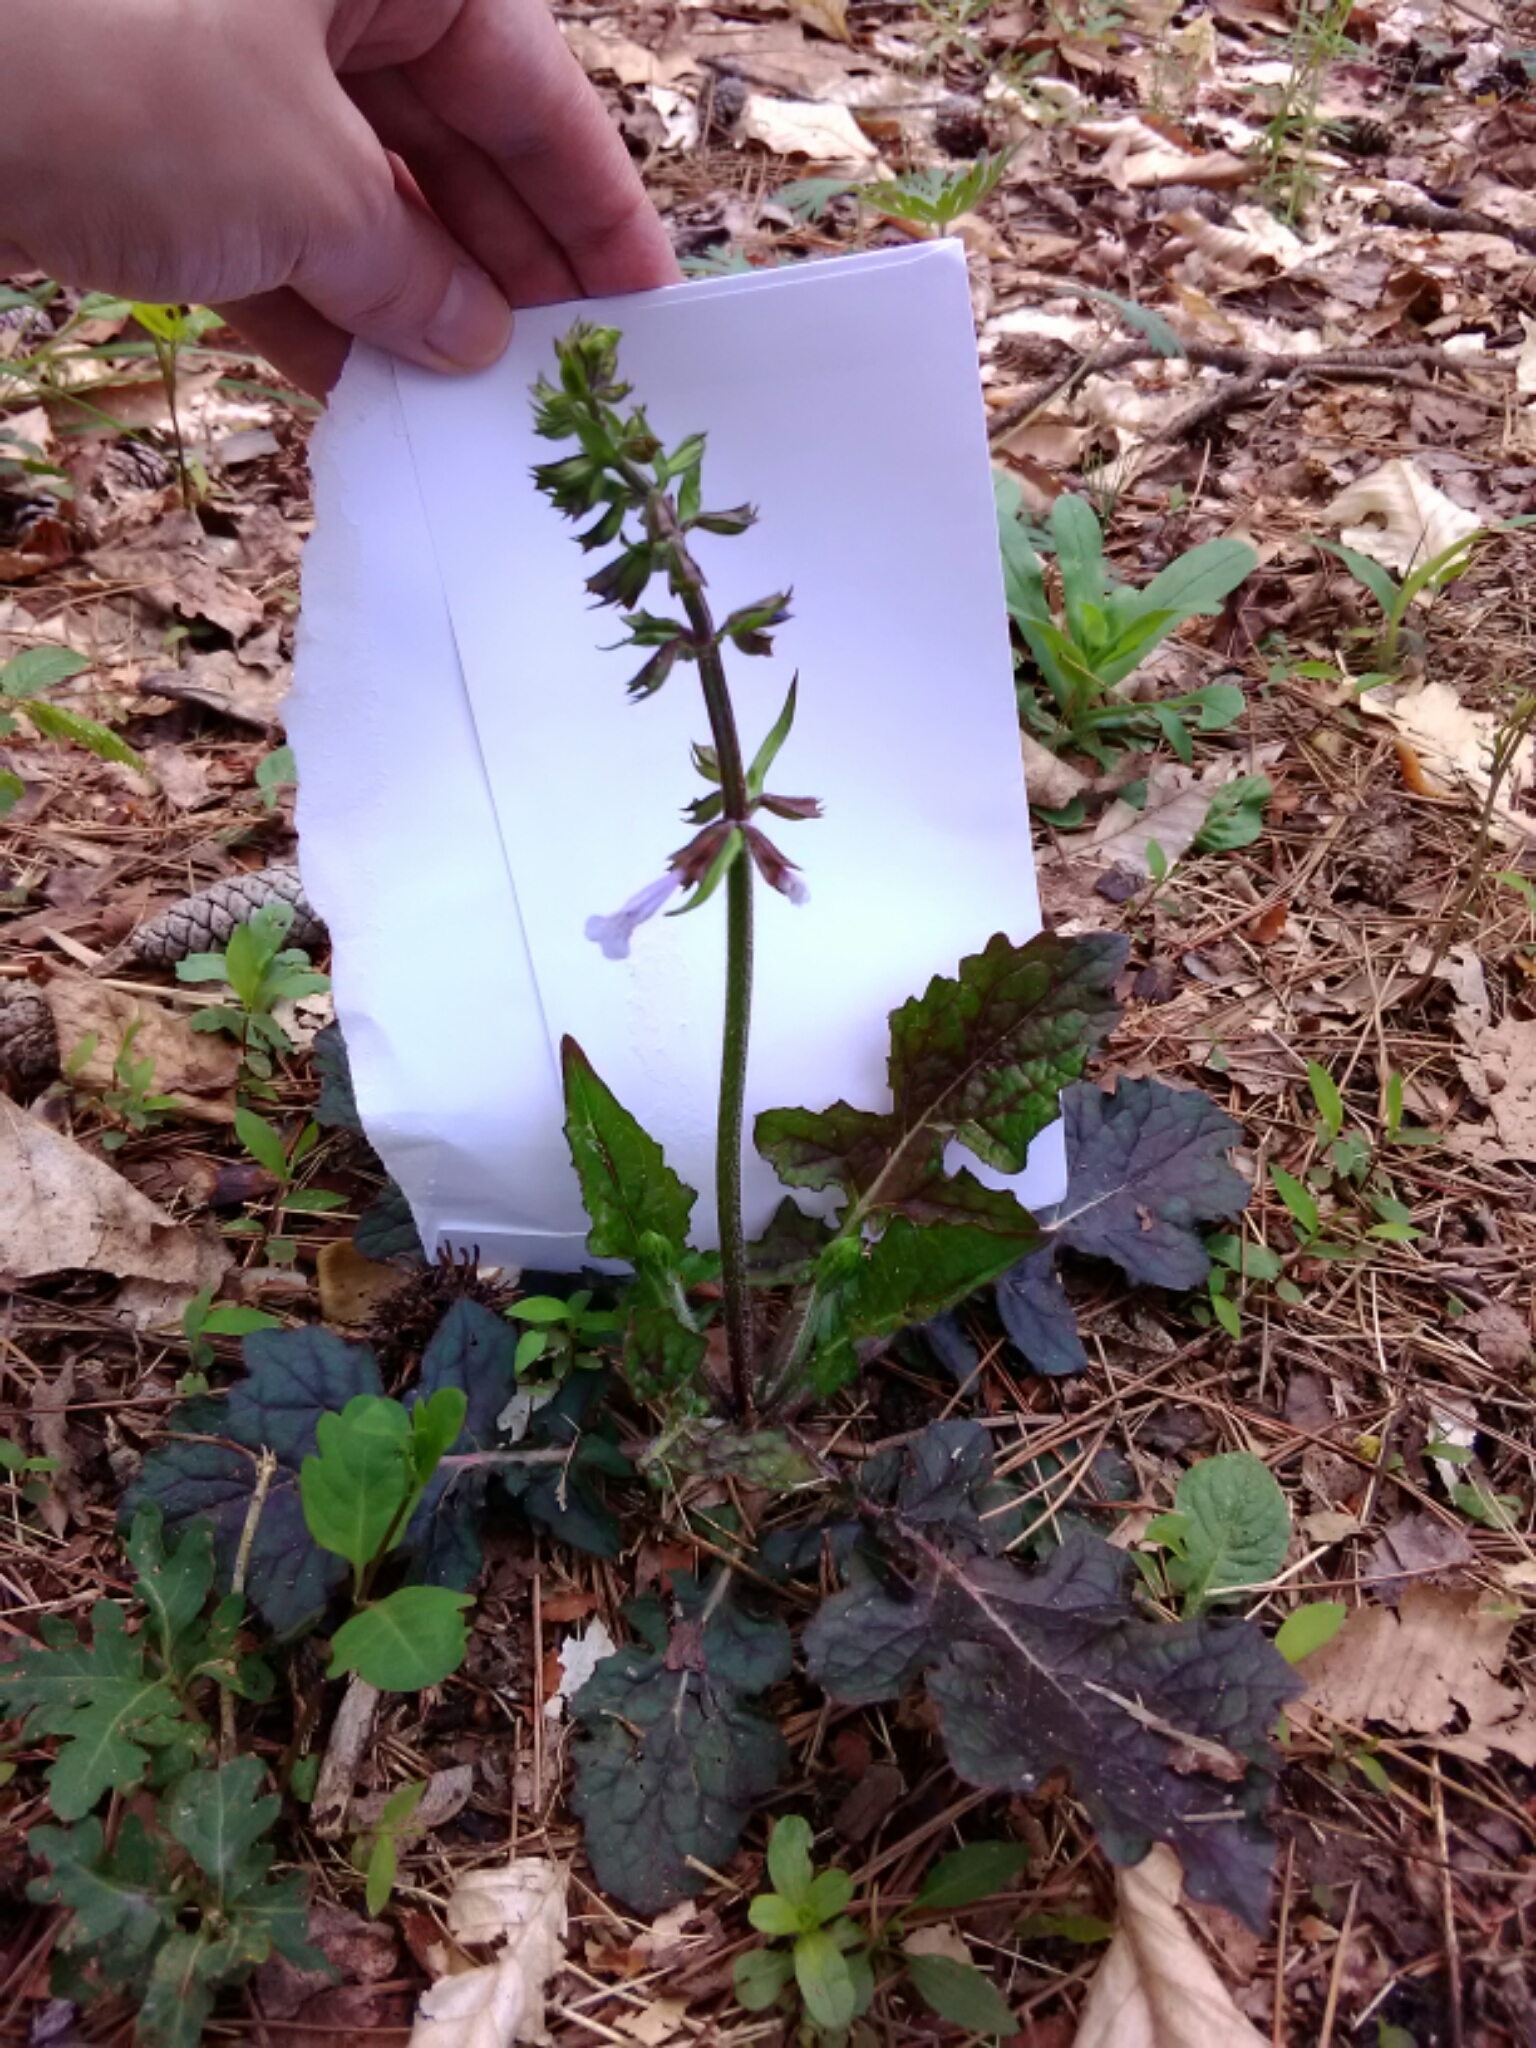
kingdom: Plantae
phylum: Tracheophyta
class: Magnoliopsida
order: Lamiales
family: Lamiaceae
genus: Salvia
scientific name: Salvia lyrata
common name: Cancerweed
